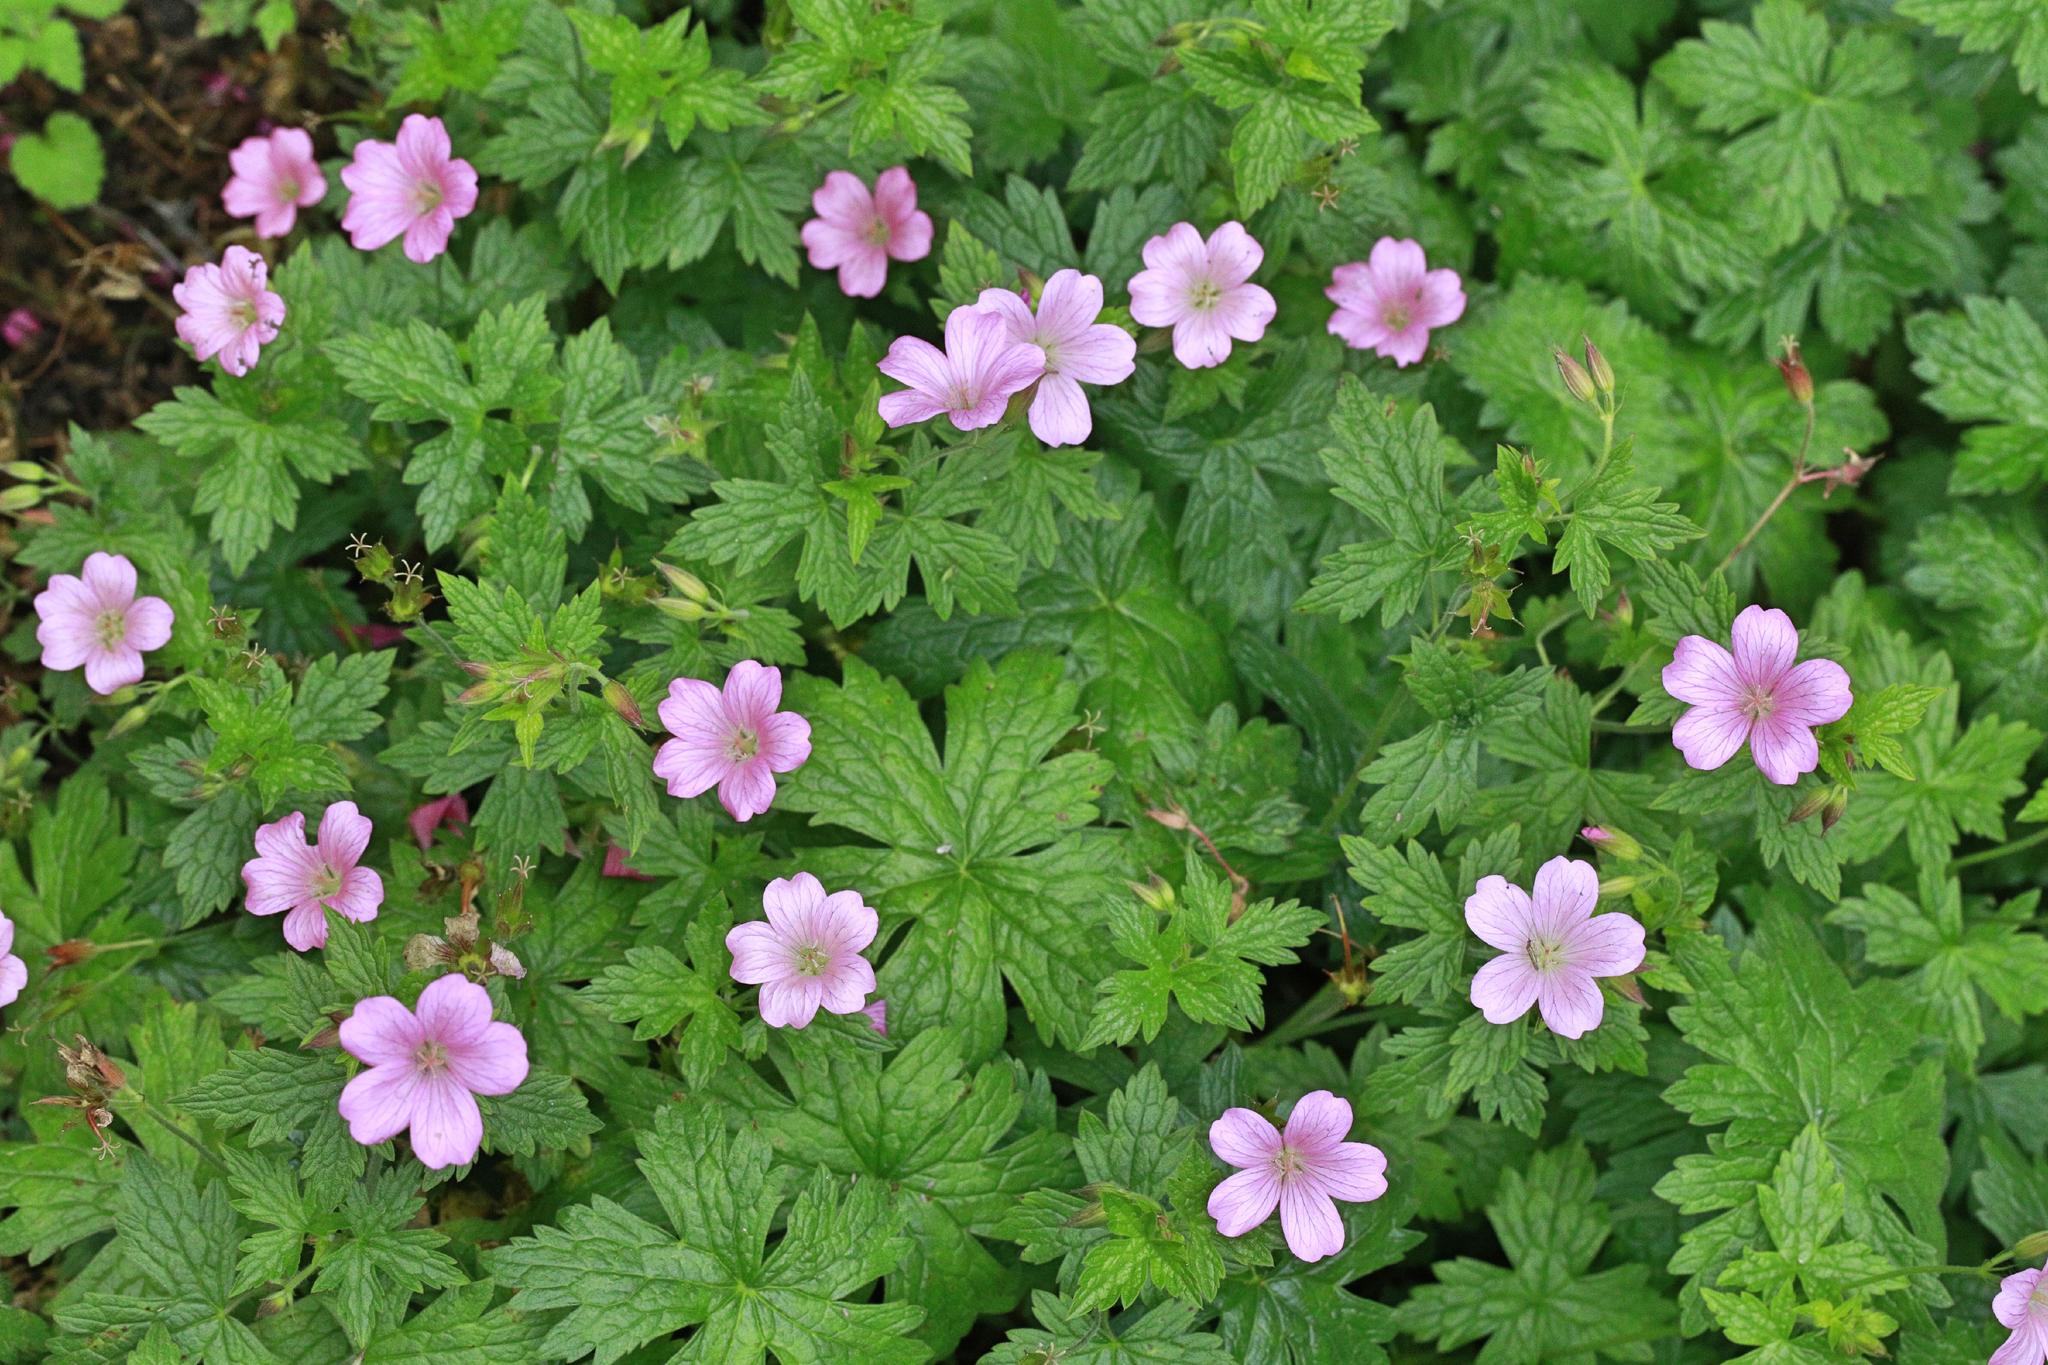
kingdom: Plantae
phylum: Tracheophyta
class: Magnoliopsida
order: Geraniales
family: Geraniaceae
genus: Geranium
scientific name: Geranium oxonianum
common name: Druce's crane's-bill
